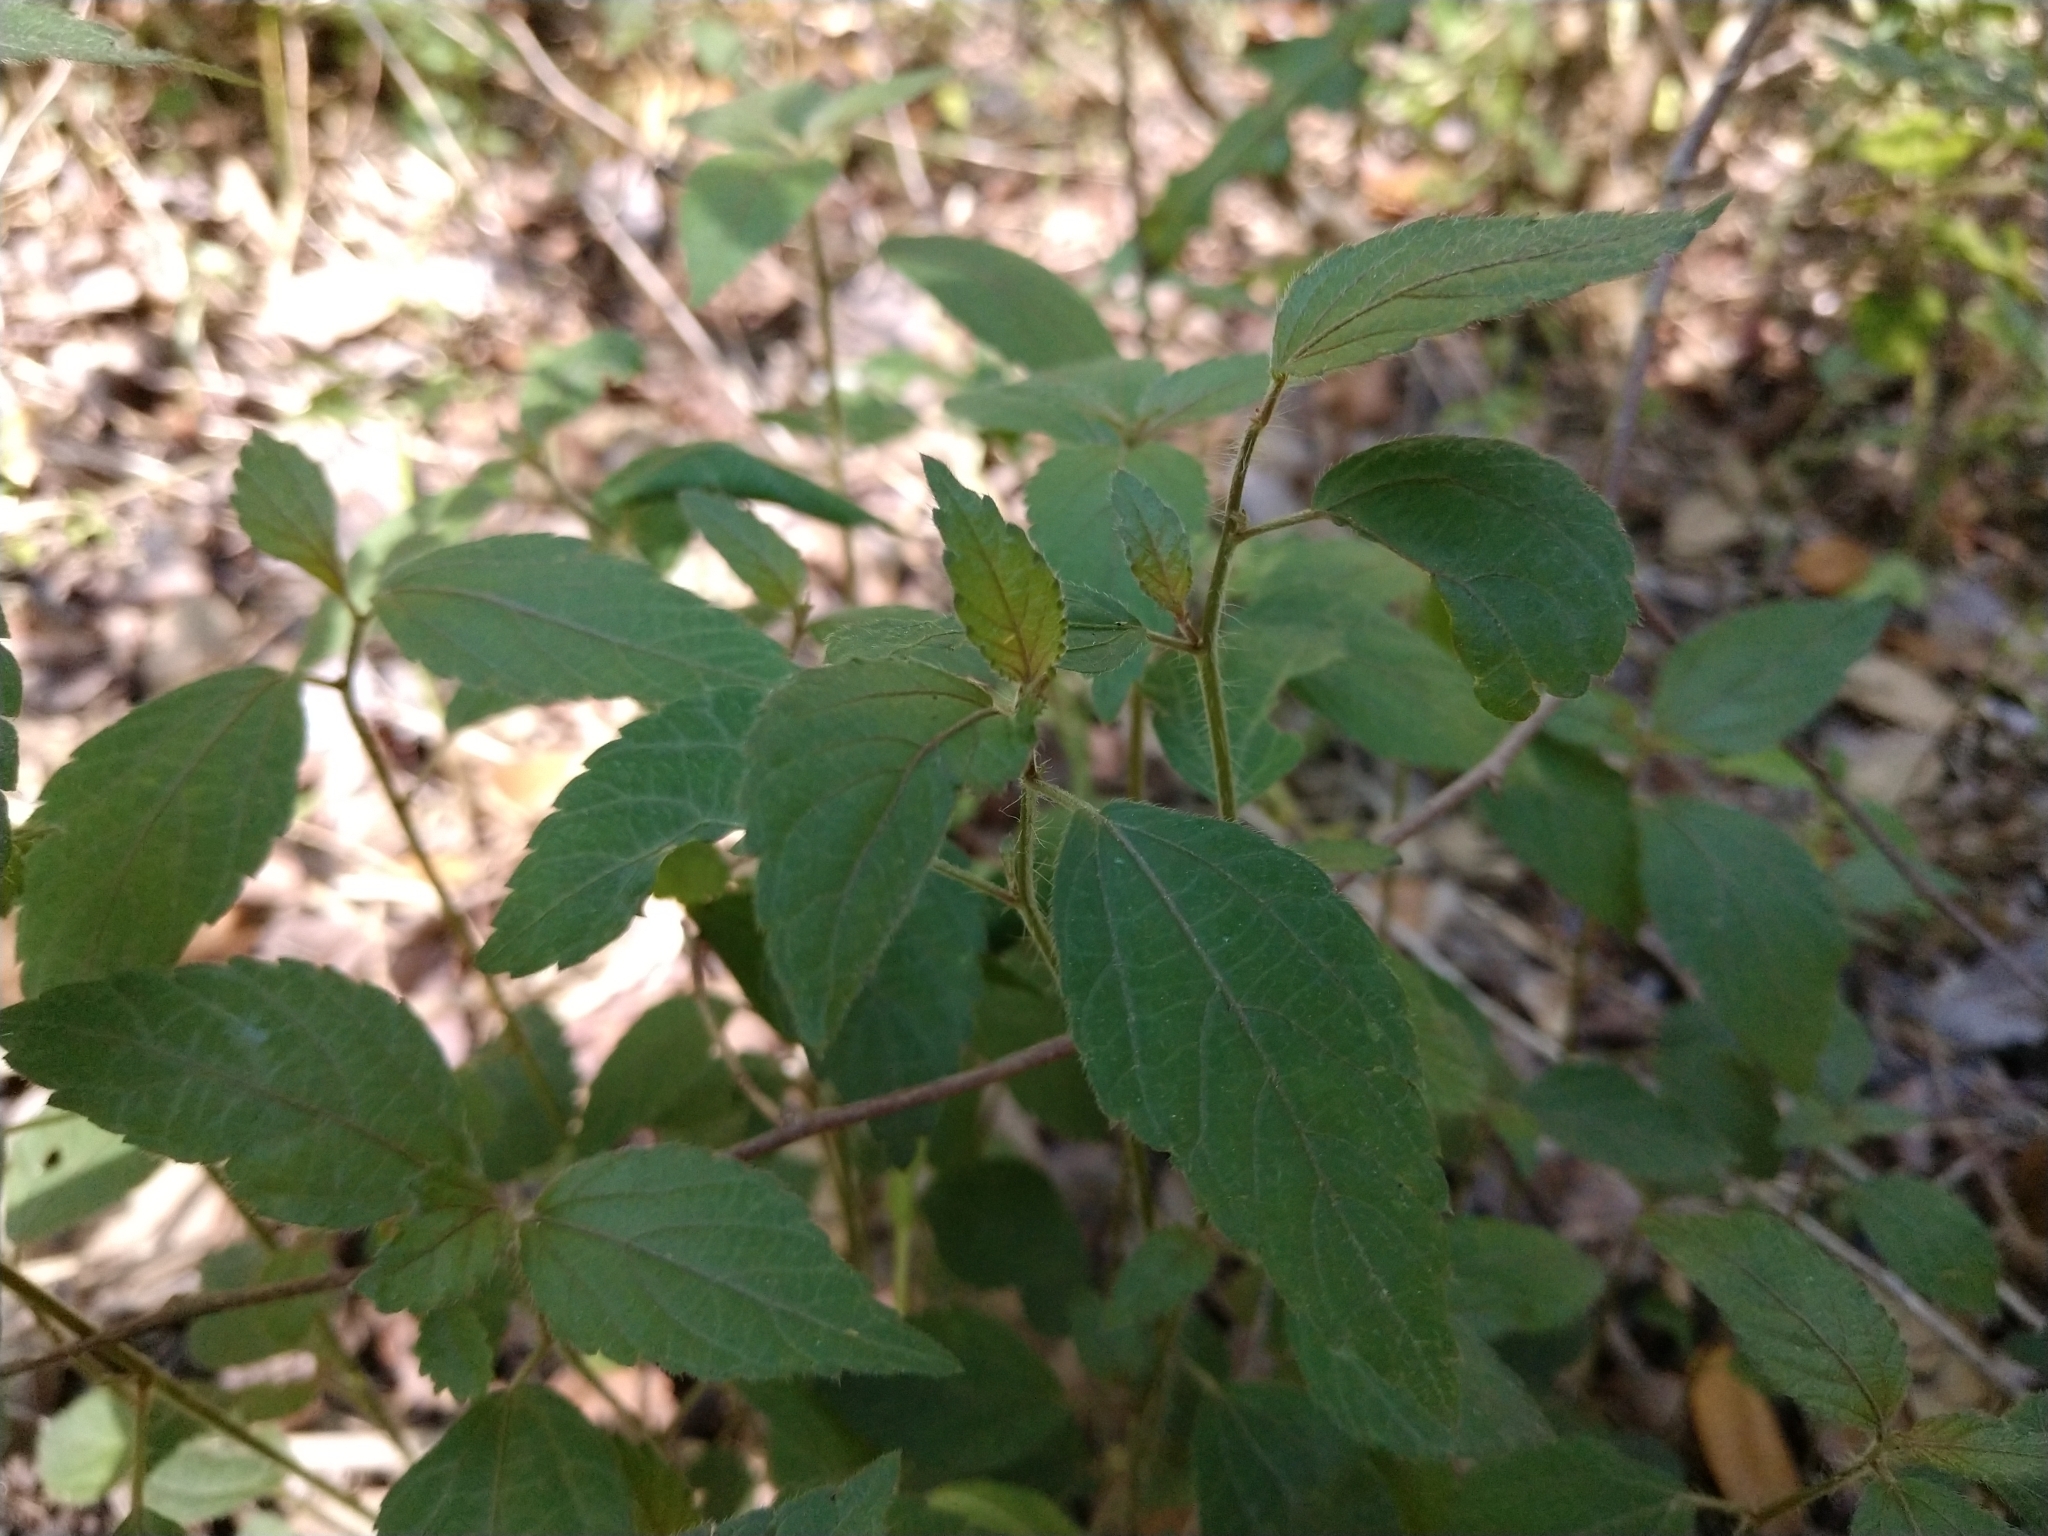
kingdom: Plantae
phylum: Tracheophyta
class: Magnoliopsida
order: Malpighiales
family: Euphorbiaceae
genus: Acalypha
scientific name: Acalypha phleoides
